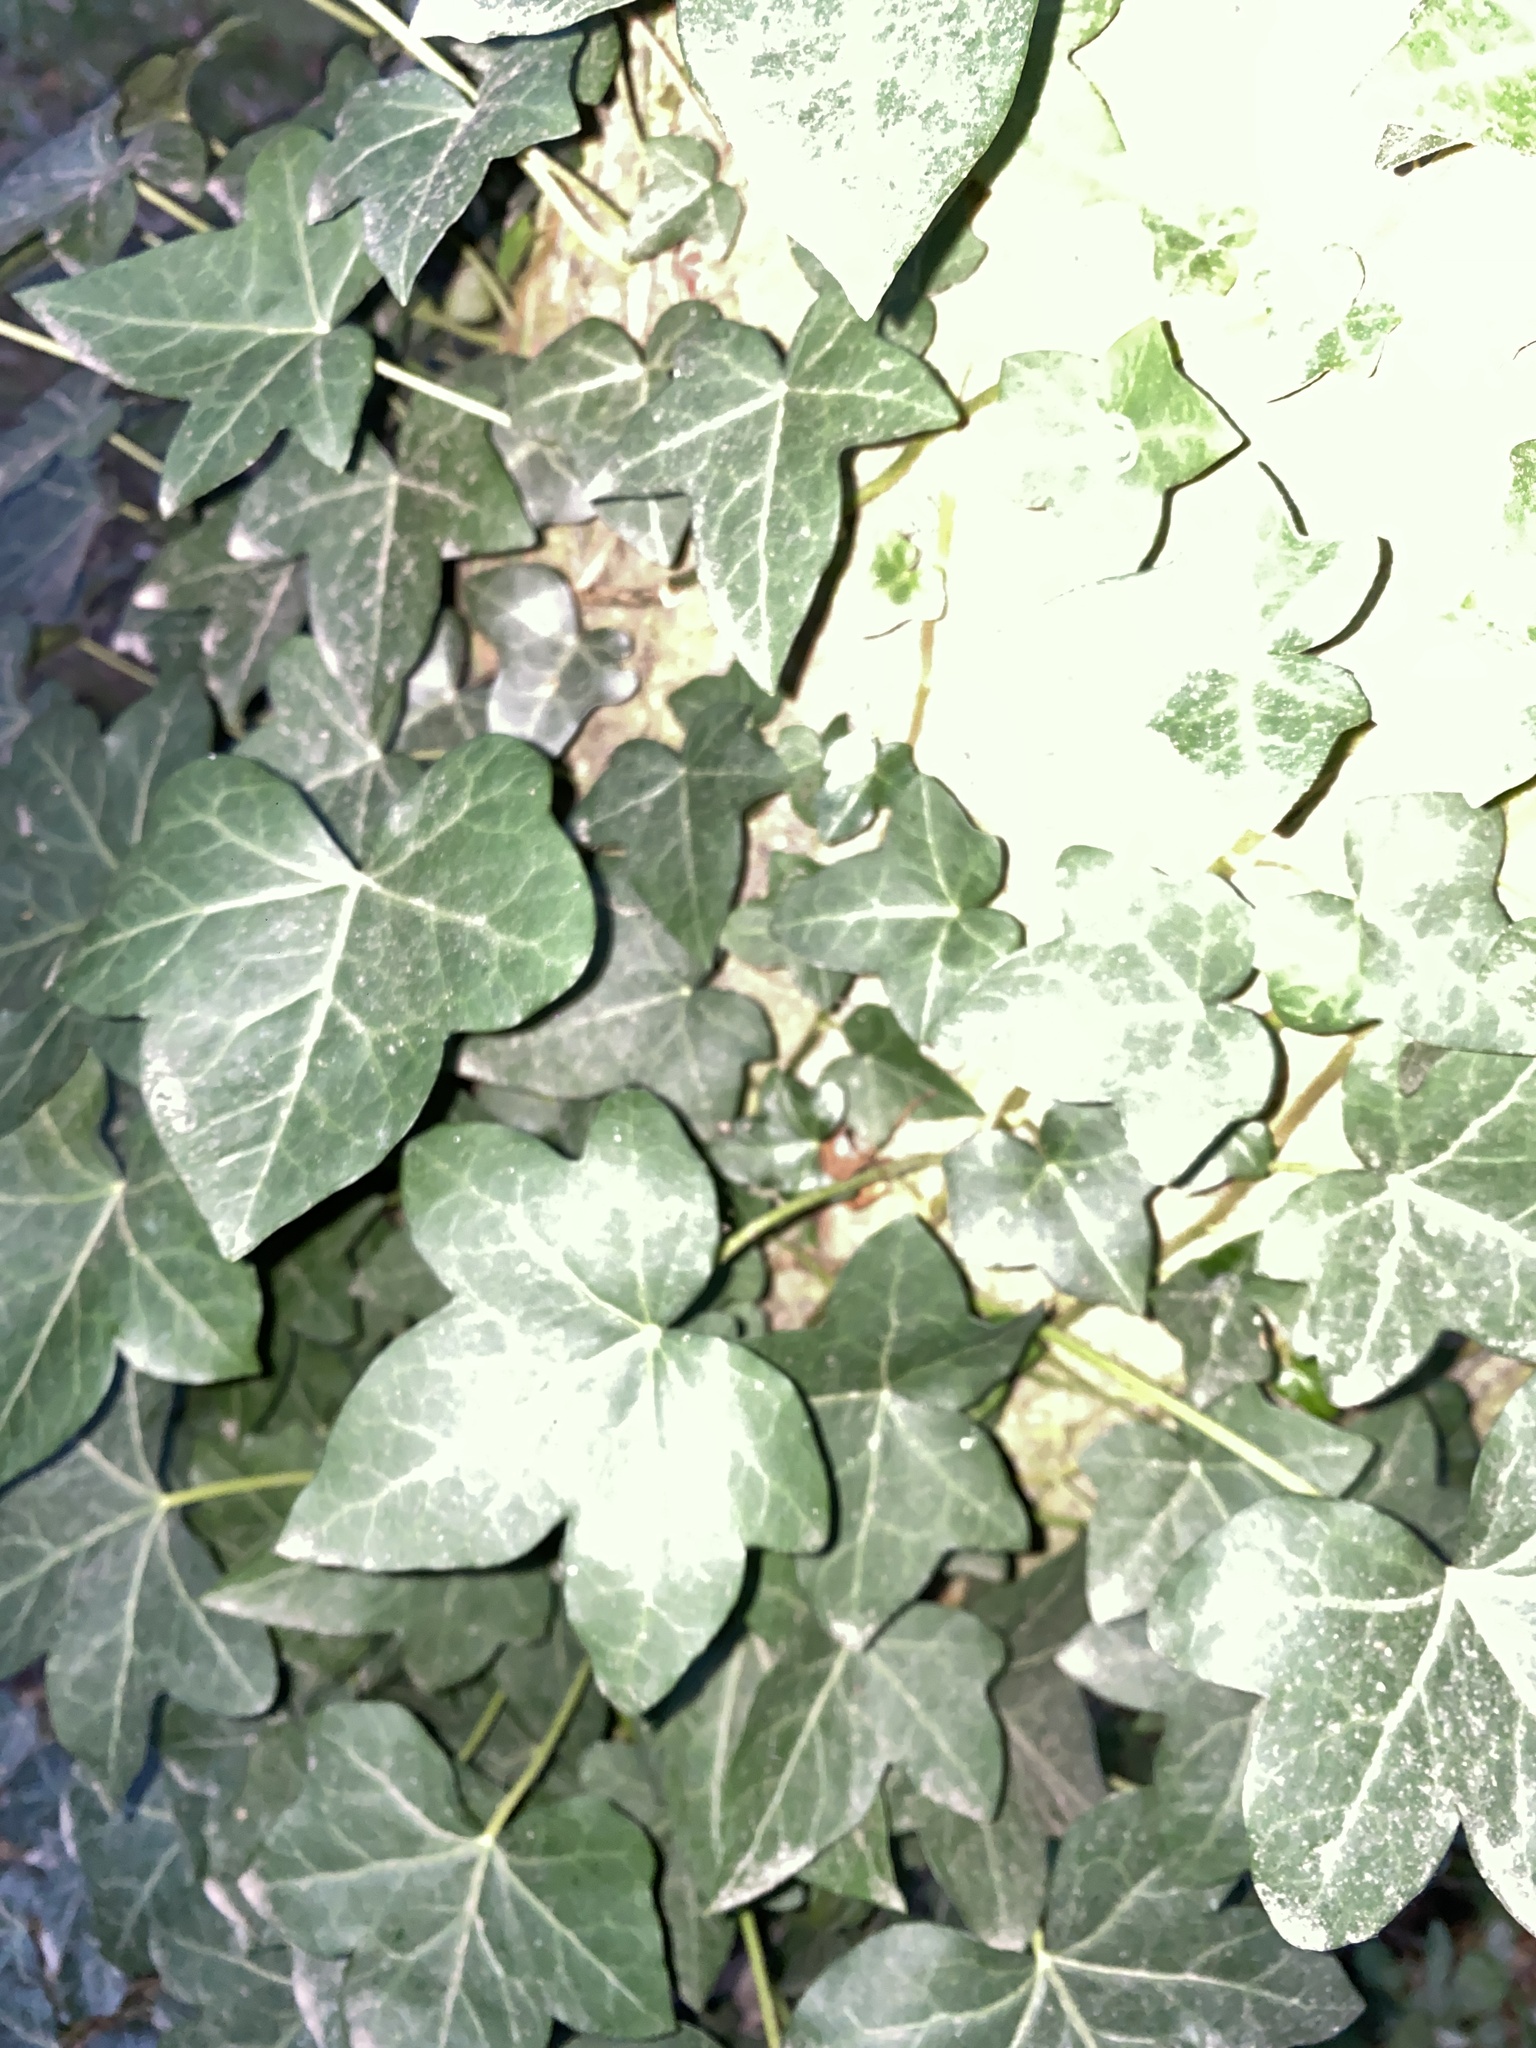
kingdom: Plantae
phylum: Tracheophyta
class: Magnoliopsida
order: Apiales
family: Araliaceae
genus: Hedera
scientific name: Hedera helix
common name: Ivy
